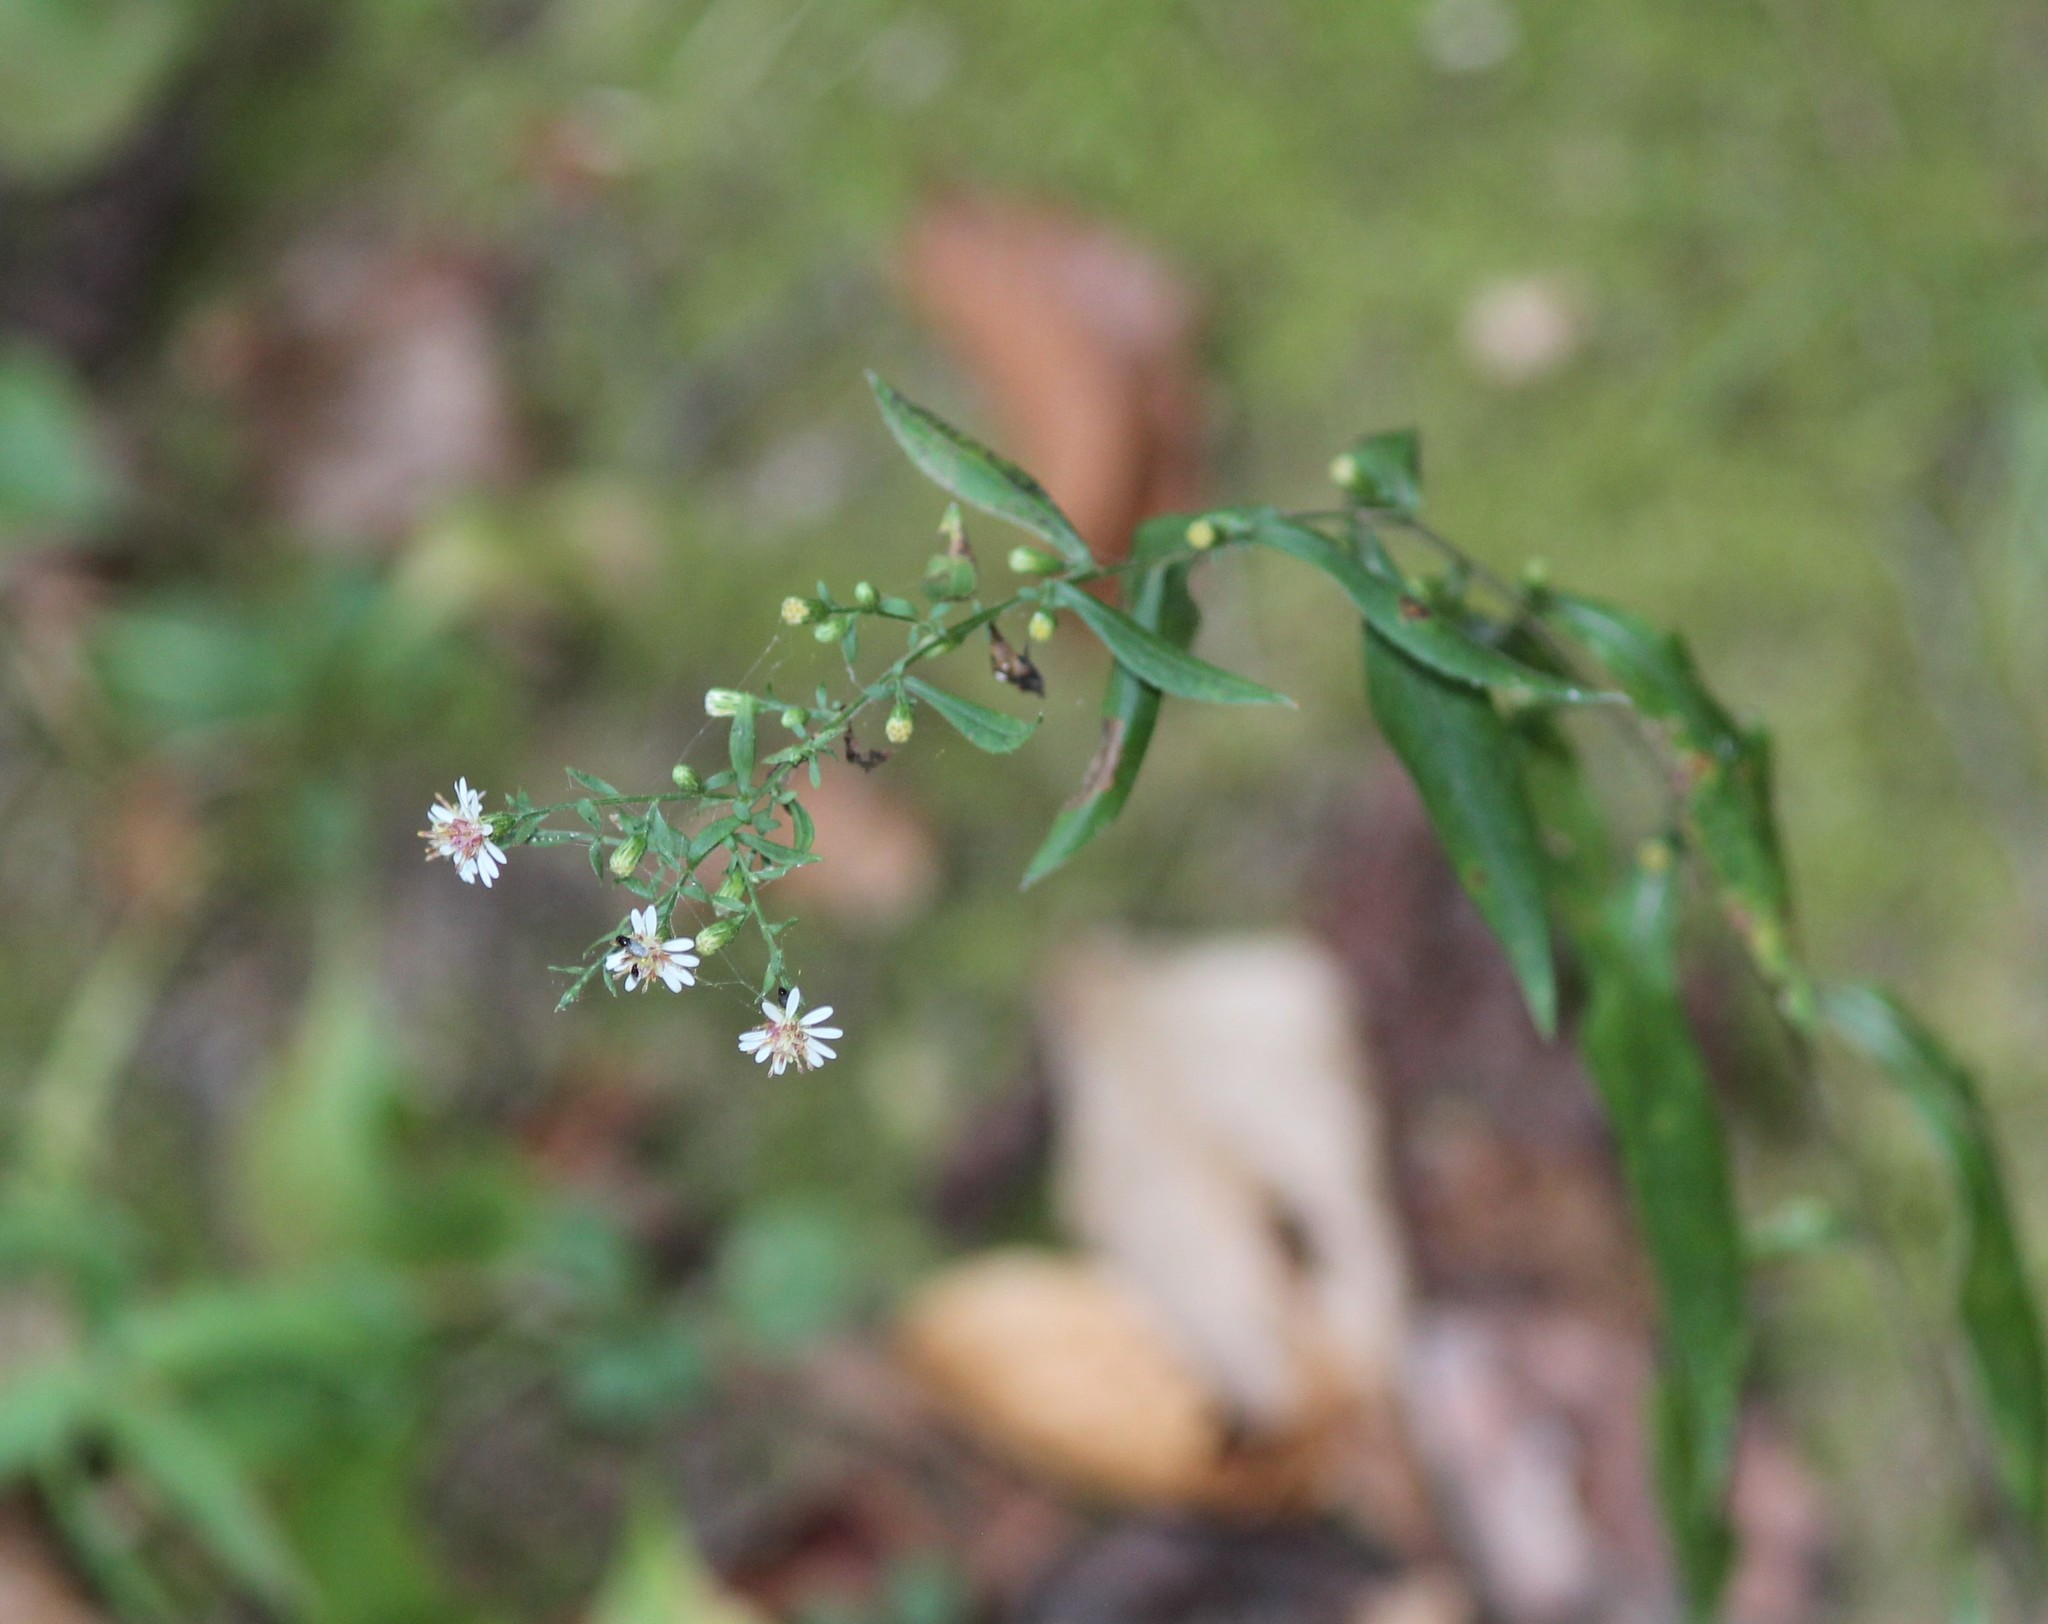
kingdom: Plantae
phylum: Tracheophyta
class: Magnoliopsida
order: Asterales
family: Asteraceae
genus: Symphyotrichum
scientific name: Symphyotrichum lateriflorum
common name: Calico aster
